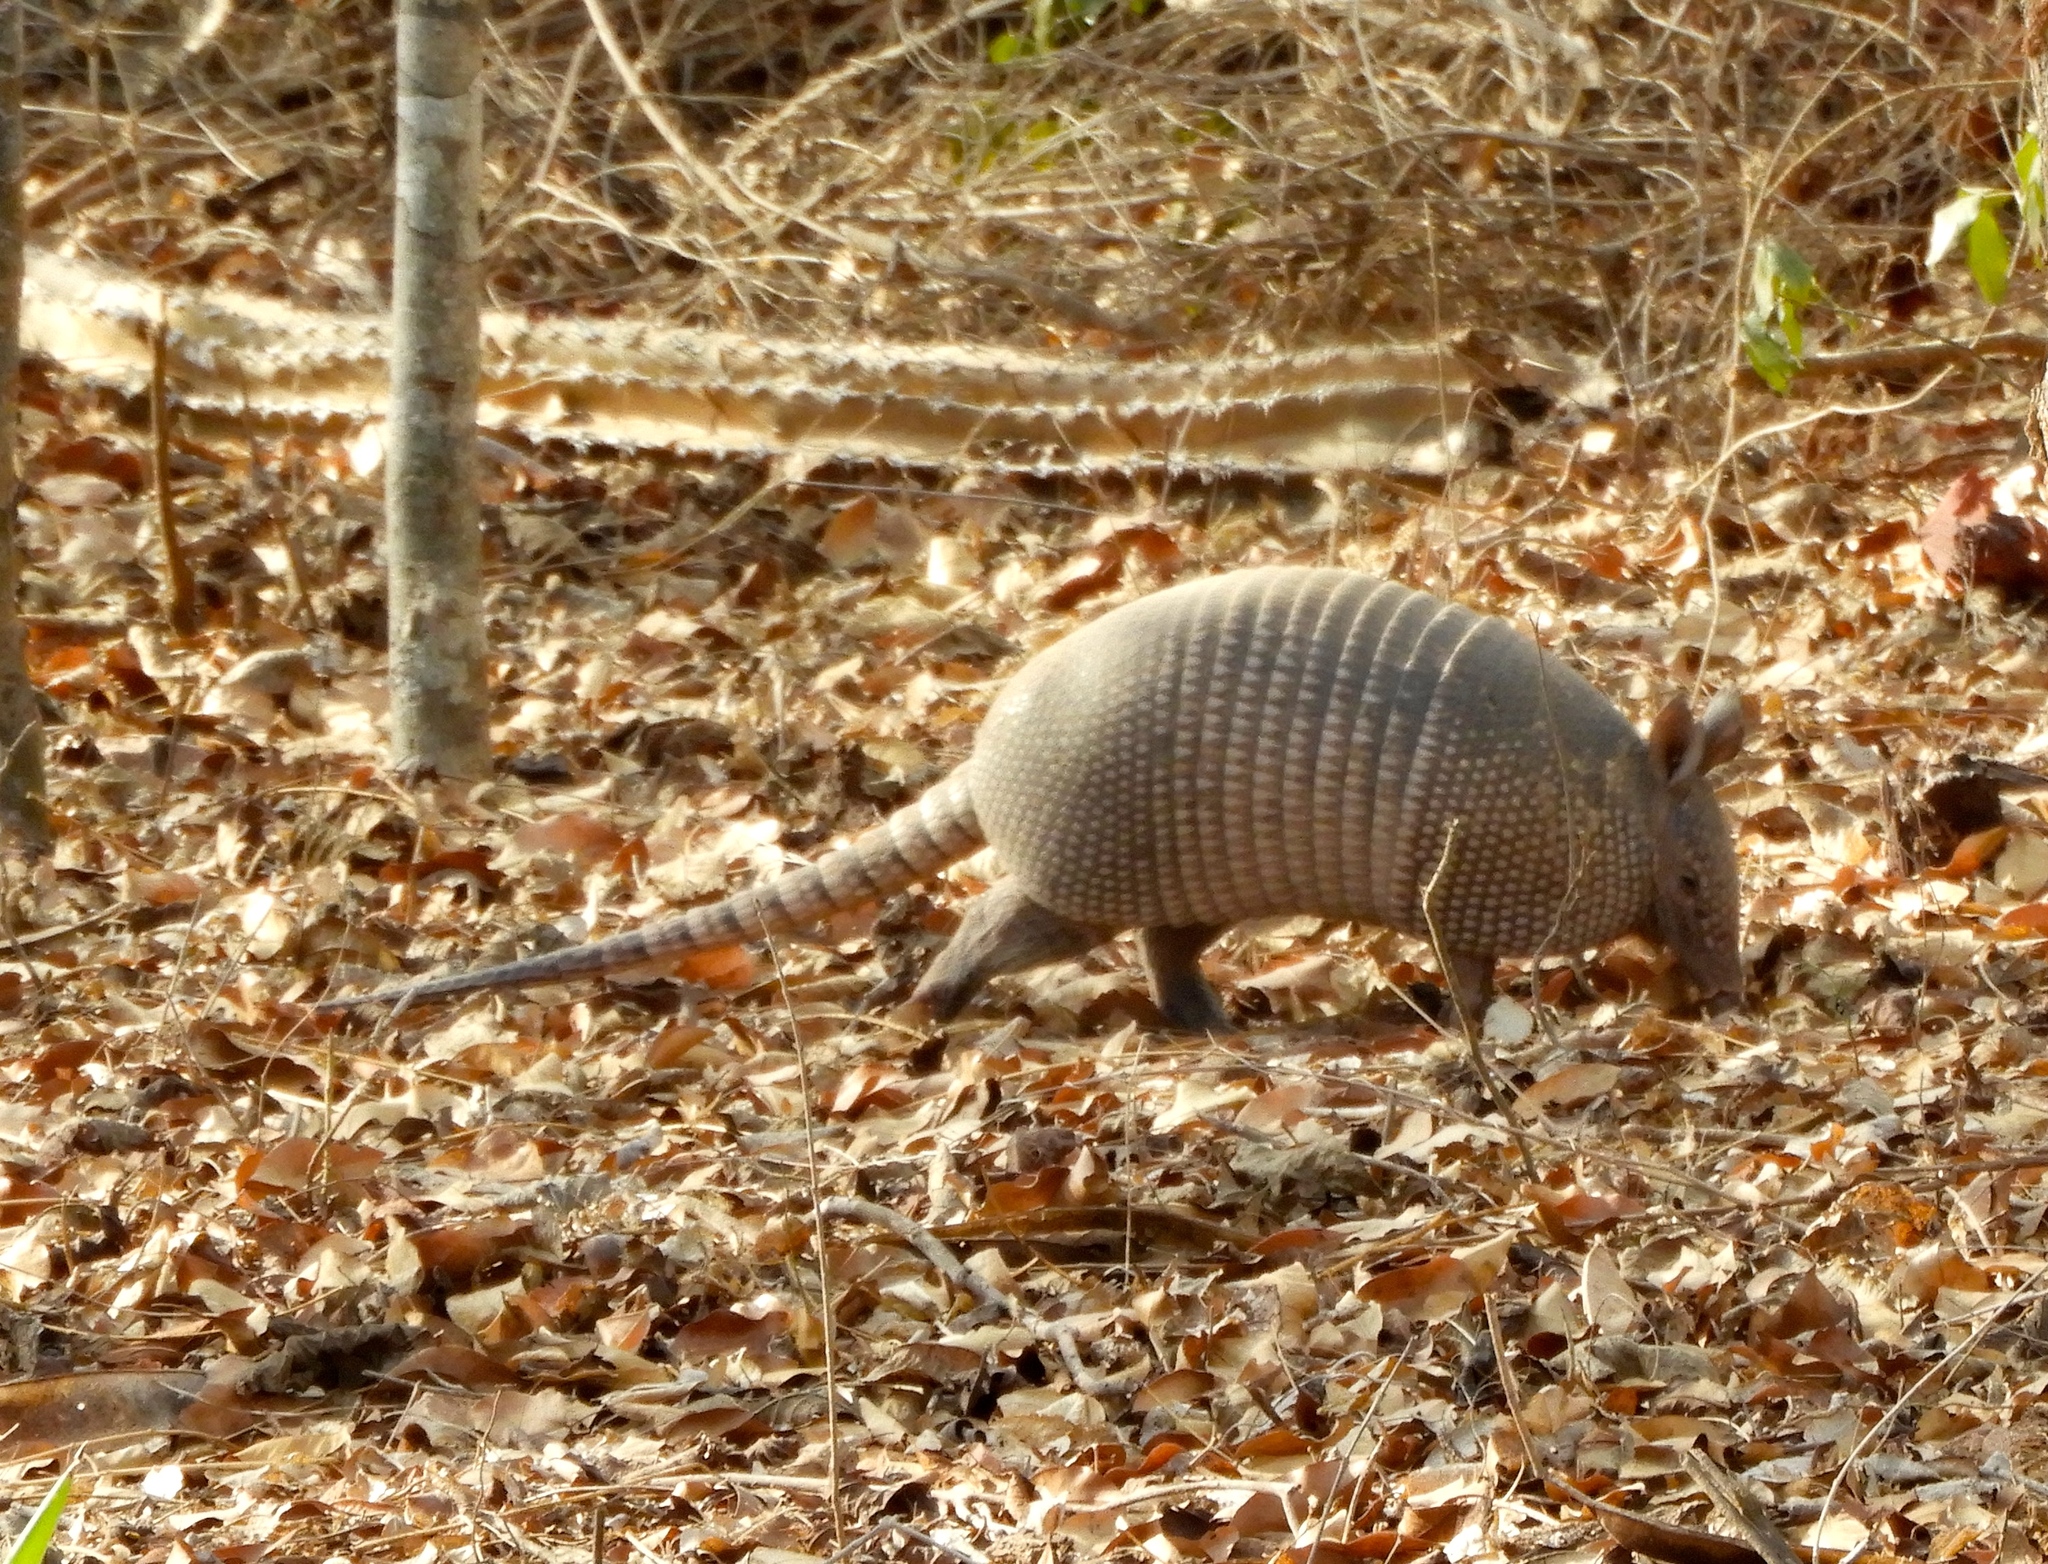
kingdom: Animalia
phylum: Chordata
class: Mammalia
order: Cingulata
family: Dasypodidae
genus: Dasypus
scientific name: Dasypus novemcinctus
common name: Nine-banded armadillo
